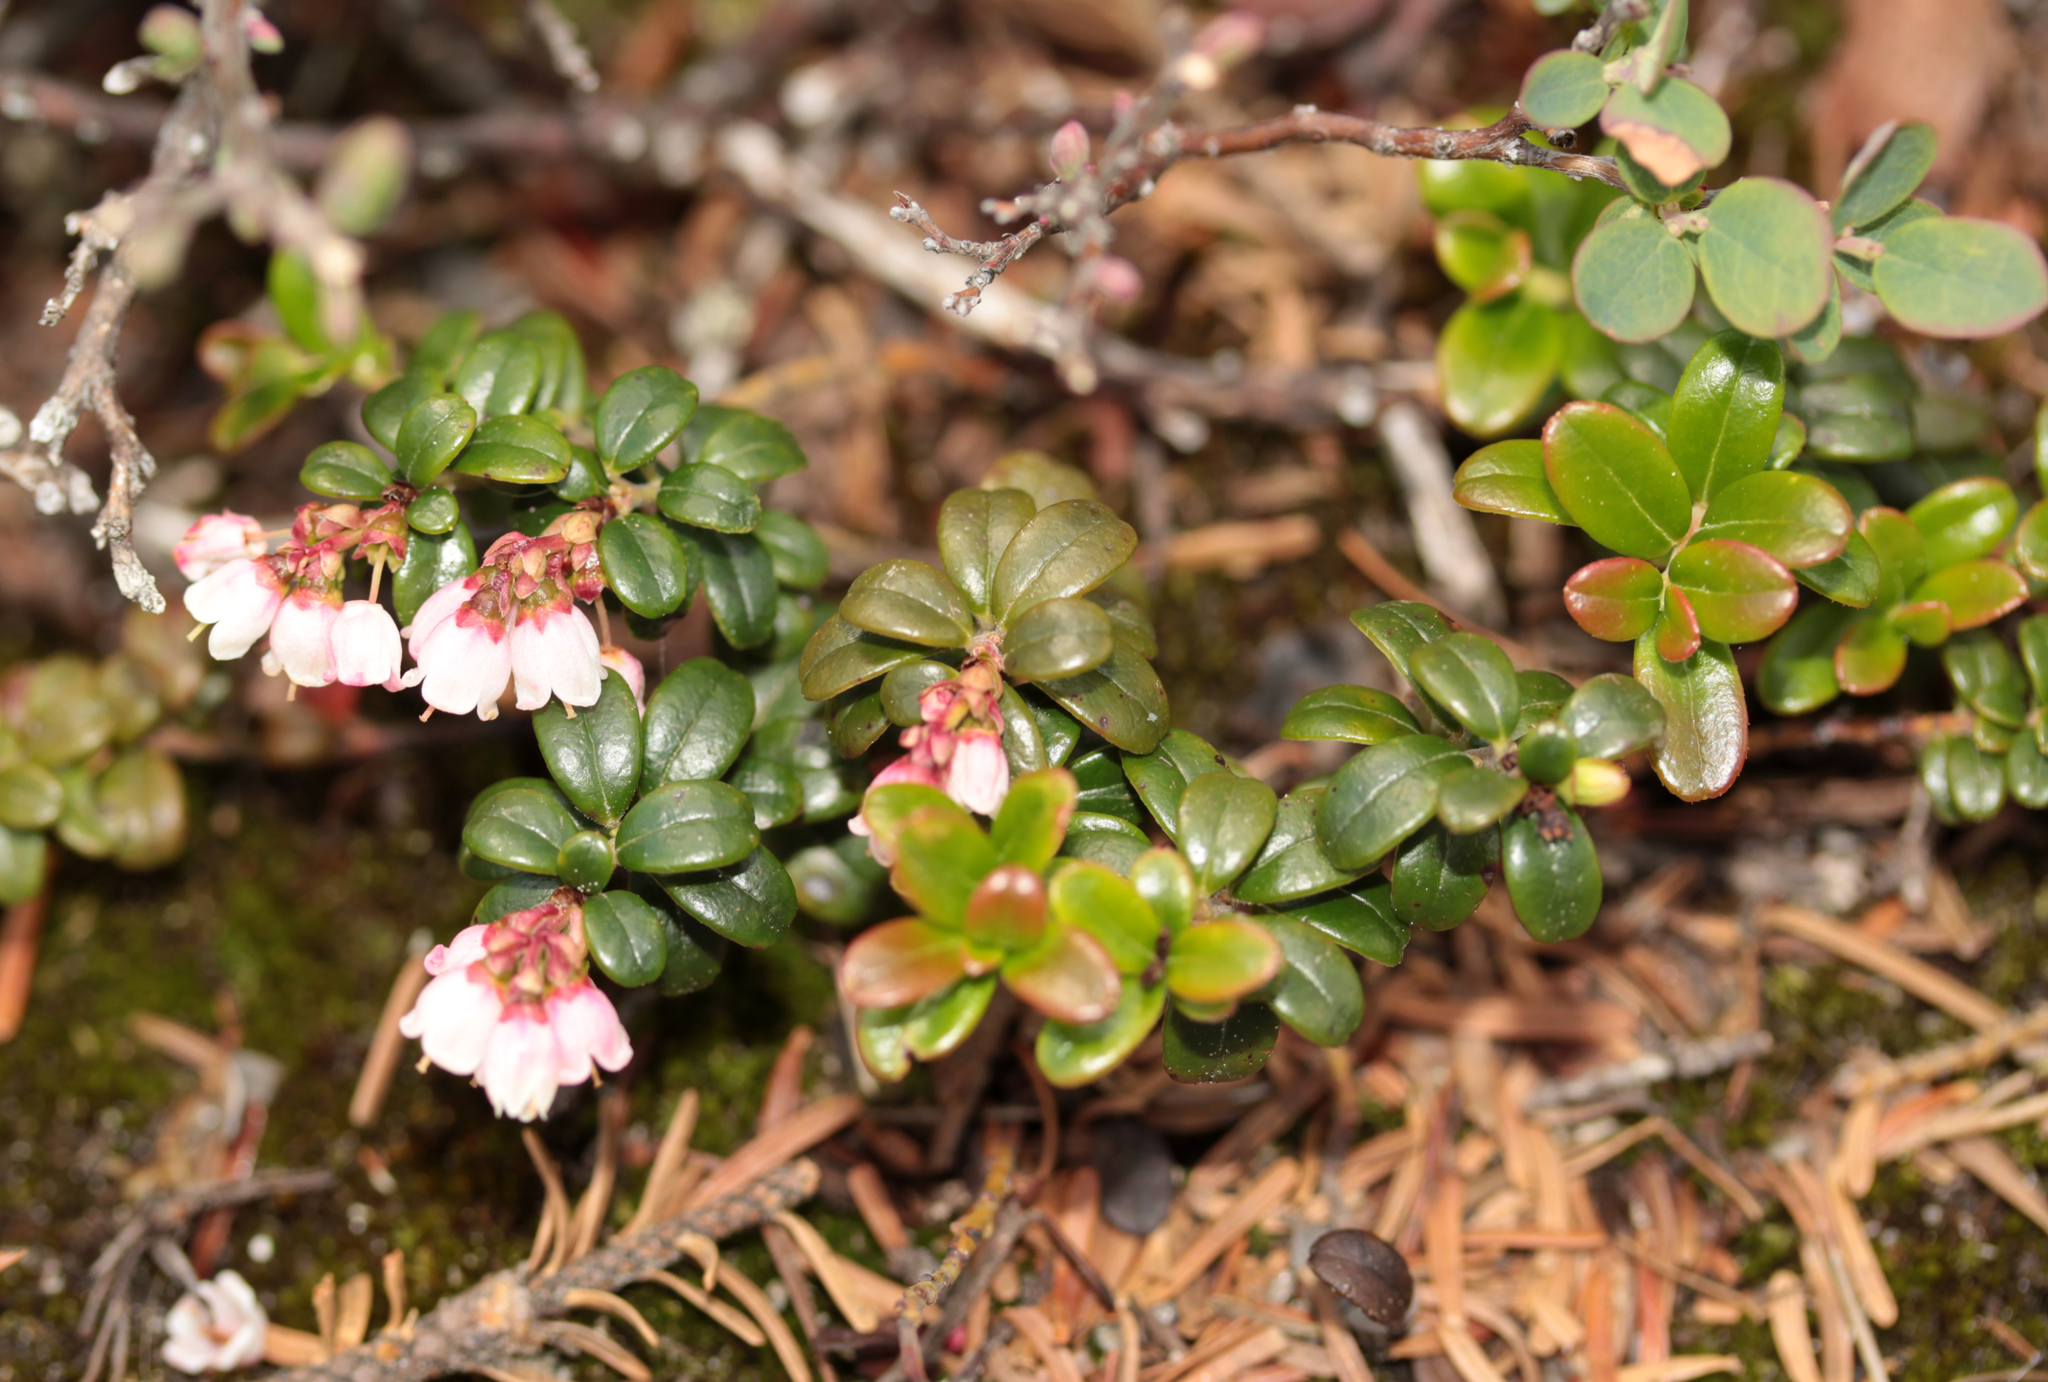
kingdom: Plantae
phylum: Tracheophyta
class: Magnoliopsida
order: Ericales
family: Ericaceae
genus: Vaccinium
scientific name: Vaccinium vitis-idaea
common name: Cowberry
